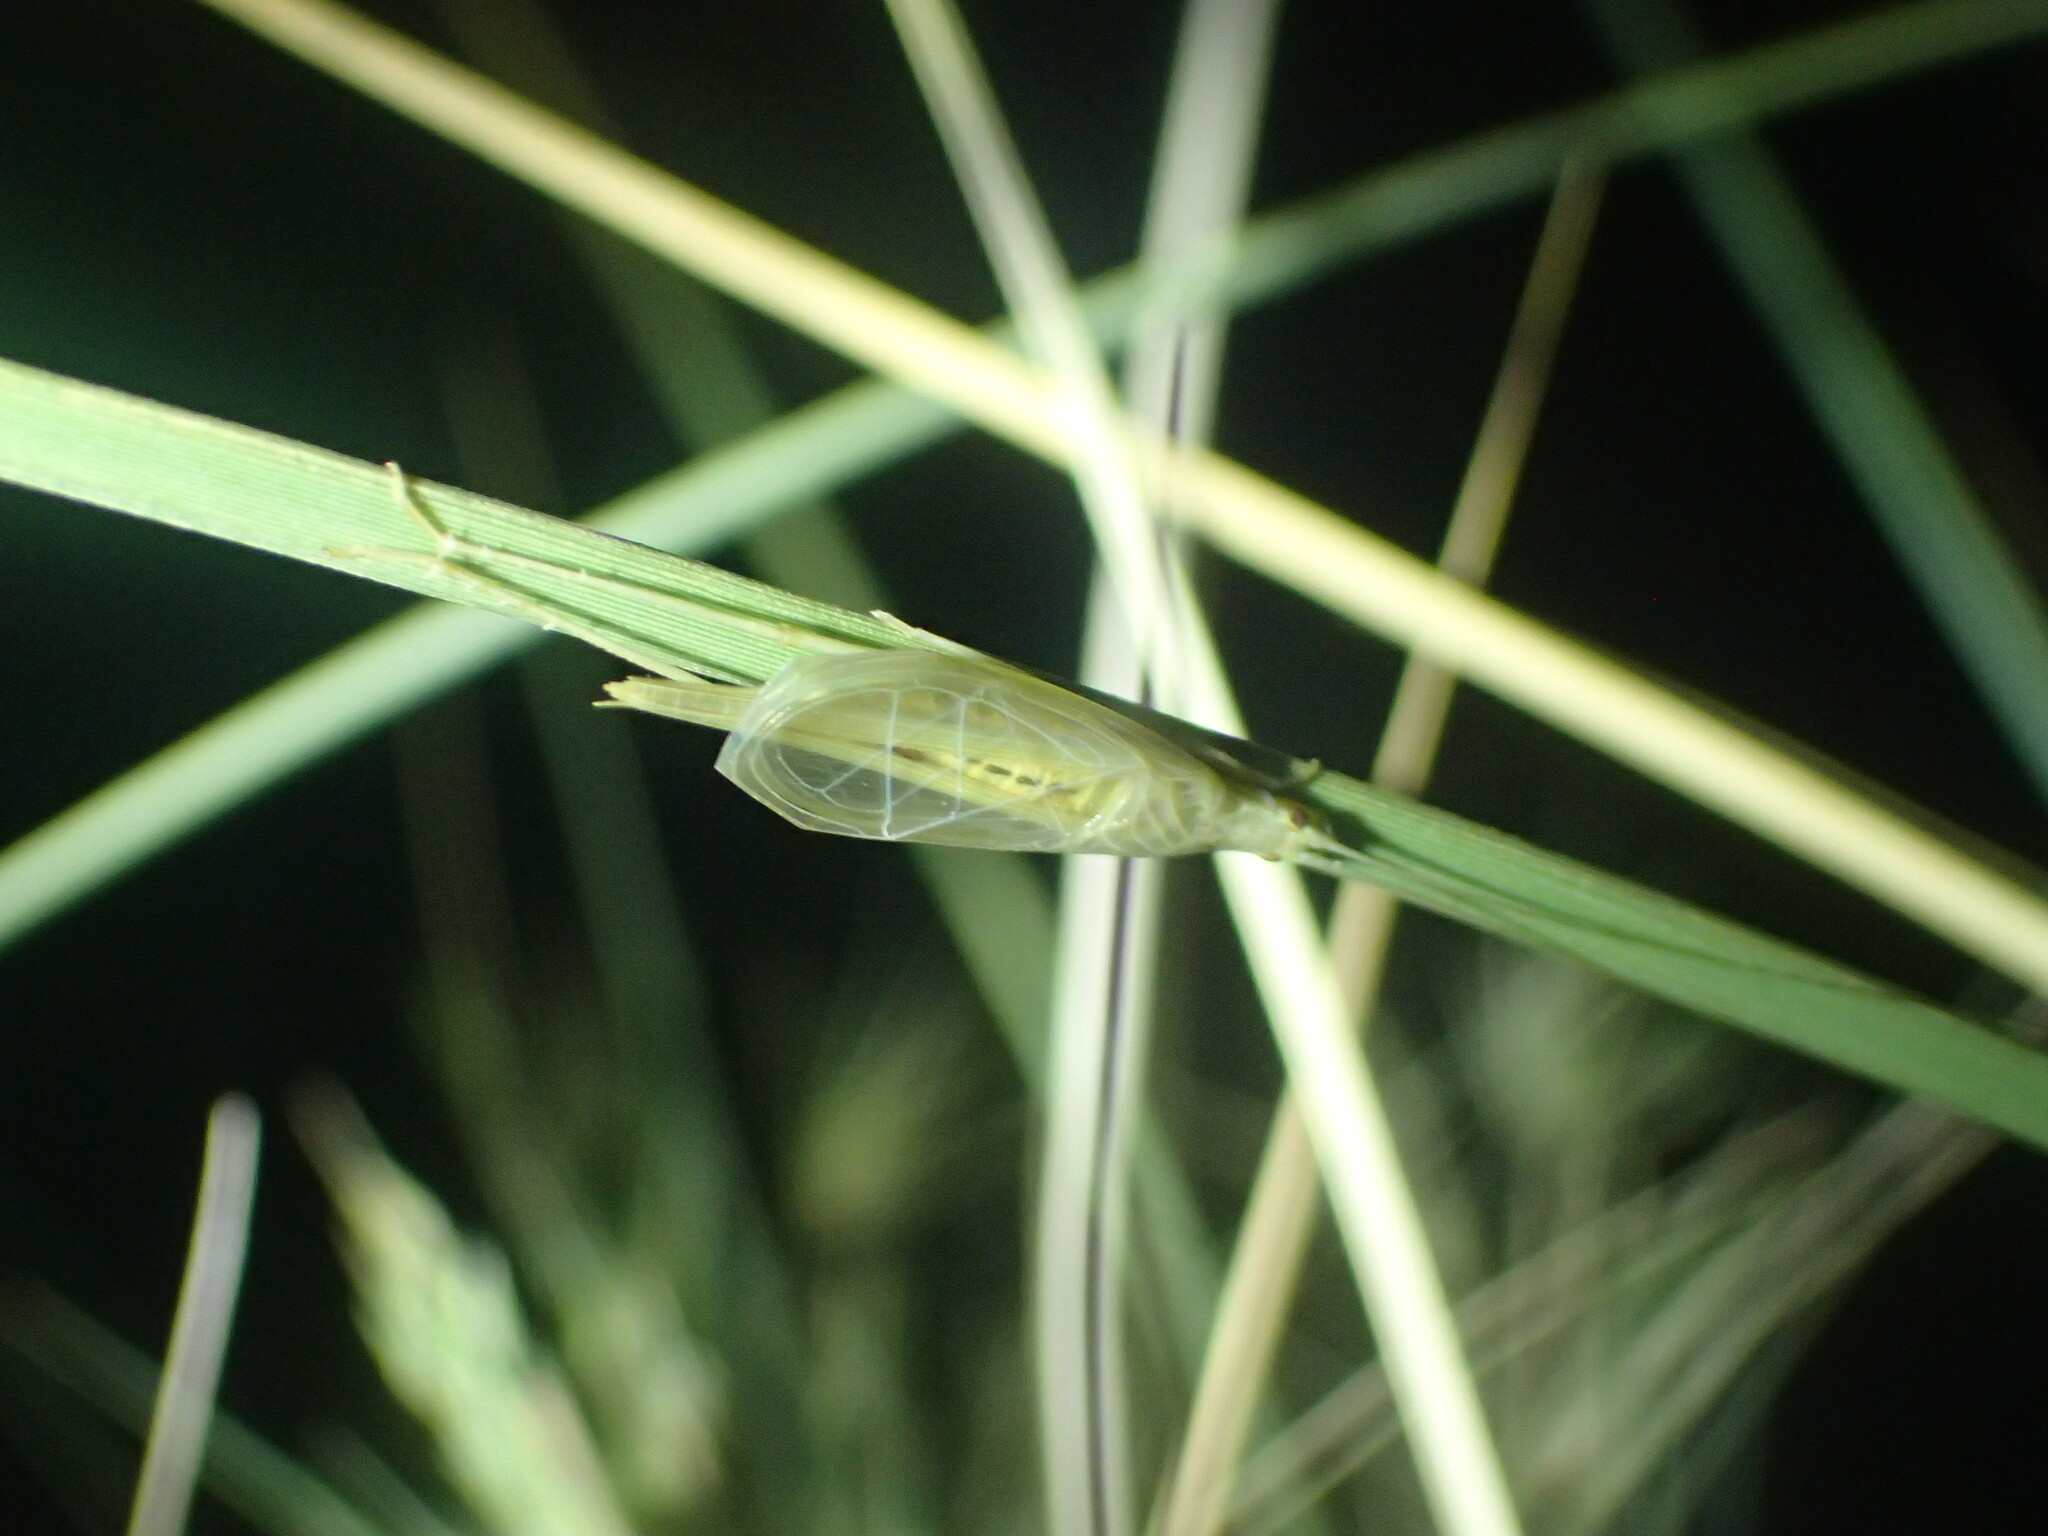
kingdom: Animalia
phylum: Arthropoda
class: Insecta
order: Orthoptera
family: Gryllidae
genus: Oecanthus
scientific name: Oecanthus adyeri
